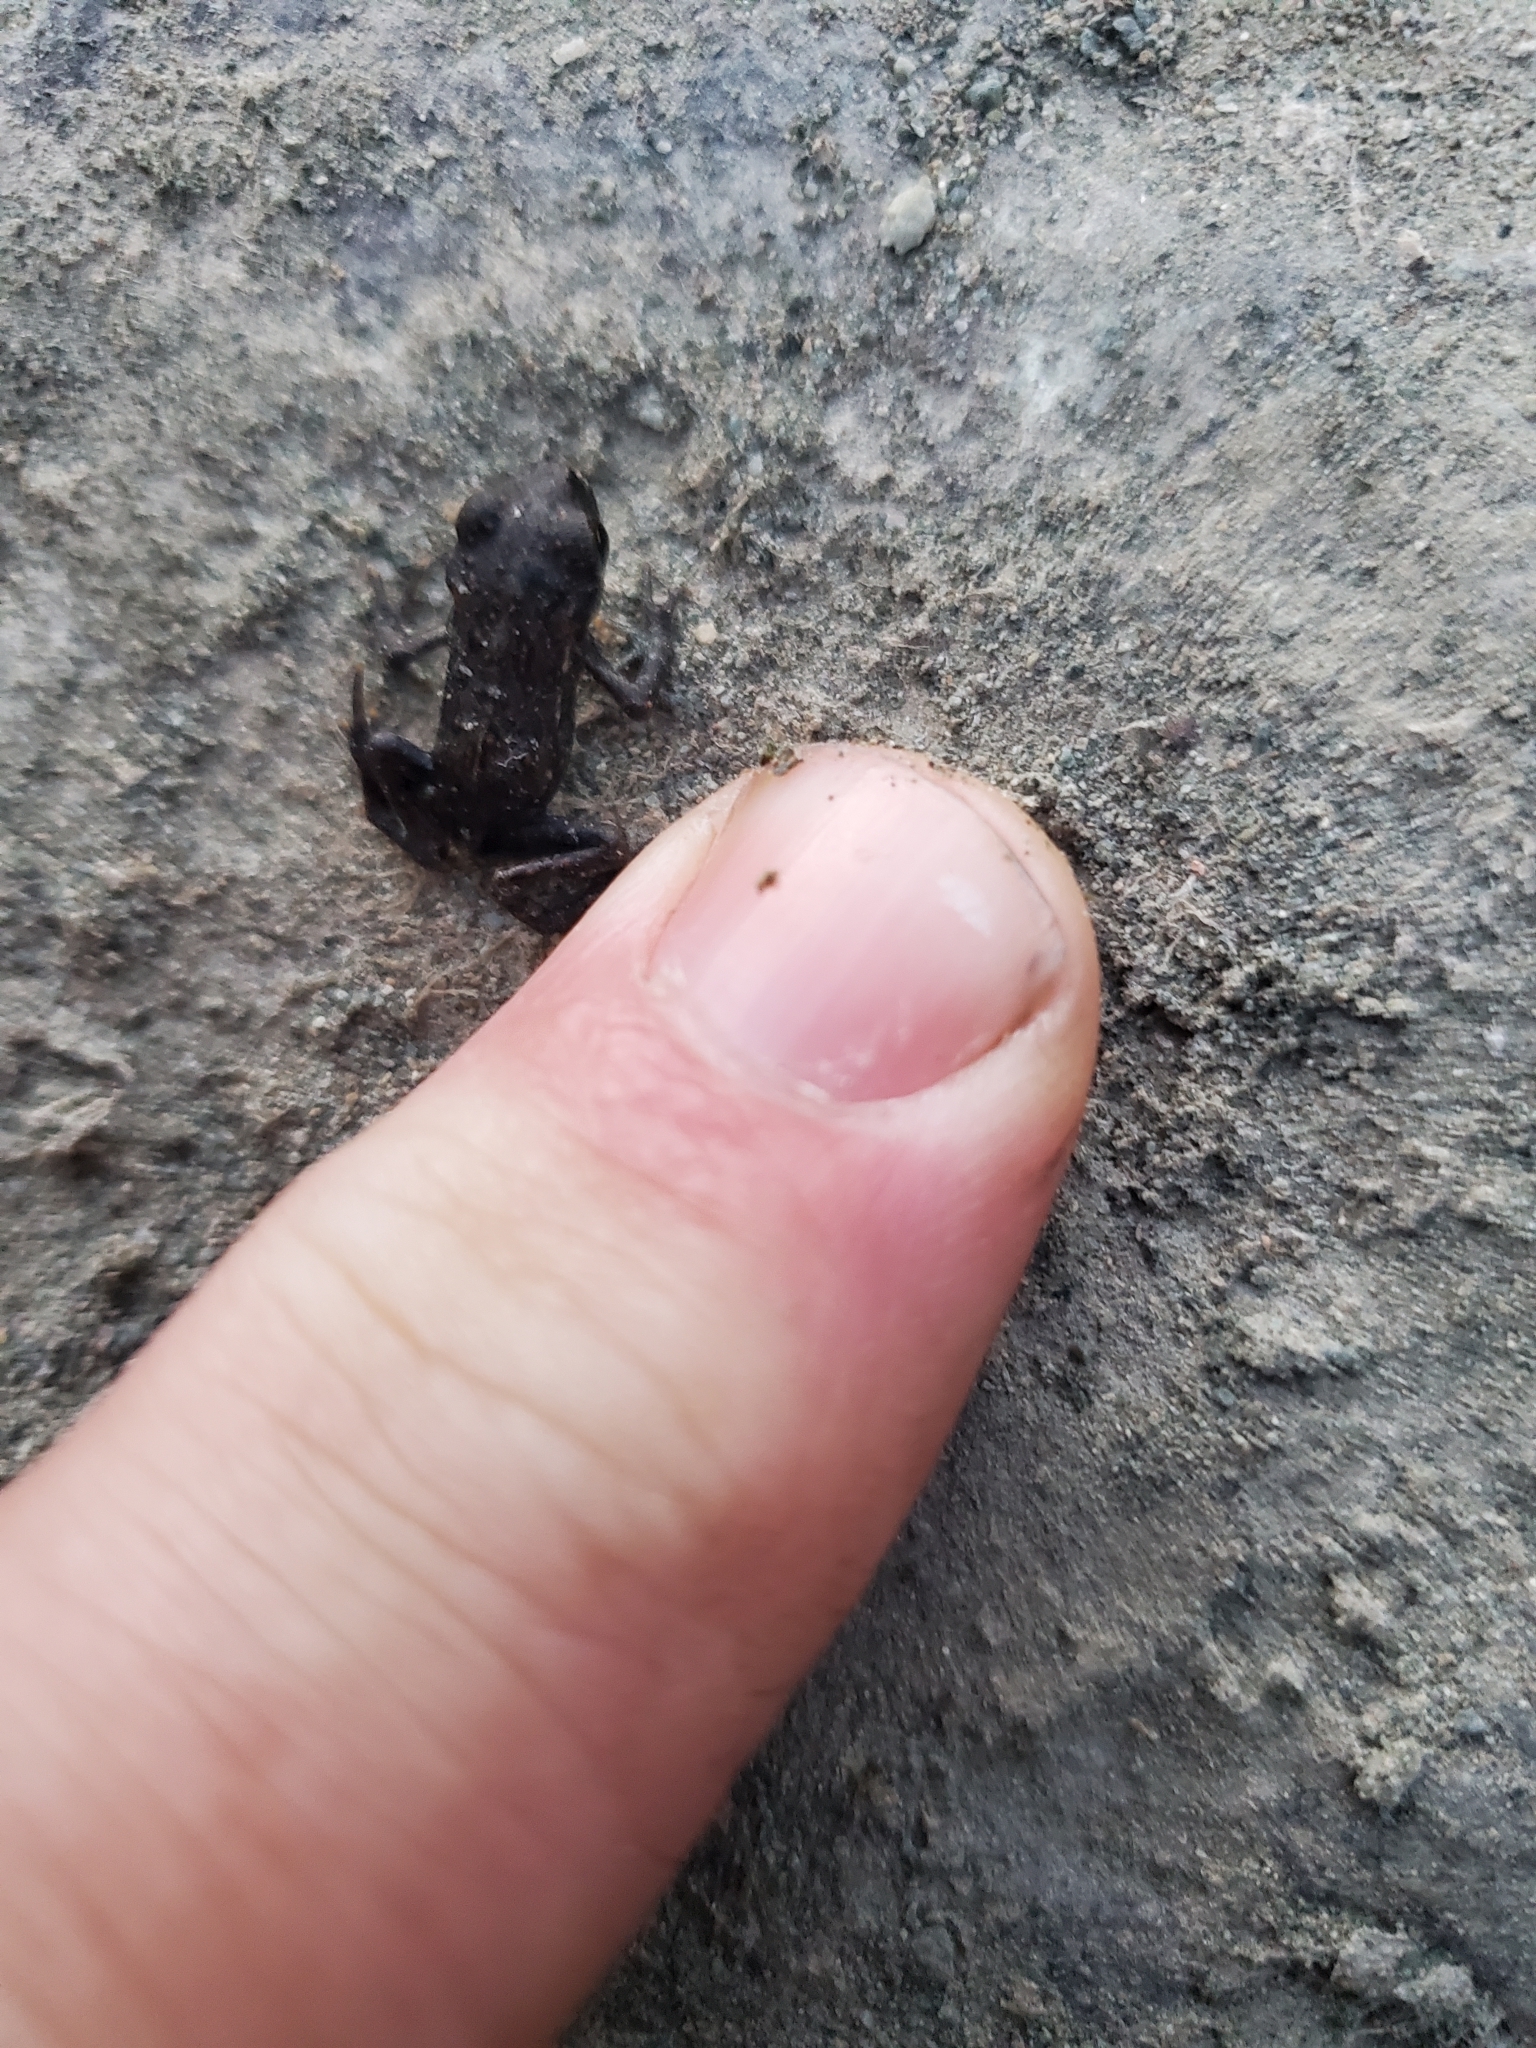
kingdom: Animalia
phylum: Chordata
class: Amphibia
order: Anura
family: Bufonidae
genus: Anaxyrus
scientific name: Anaxyrus boreas
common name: Western toad
